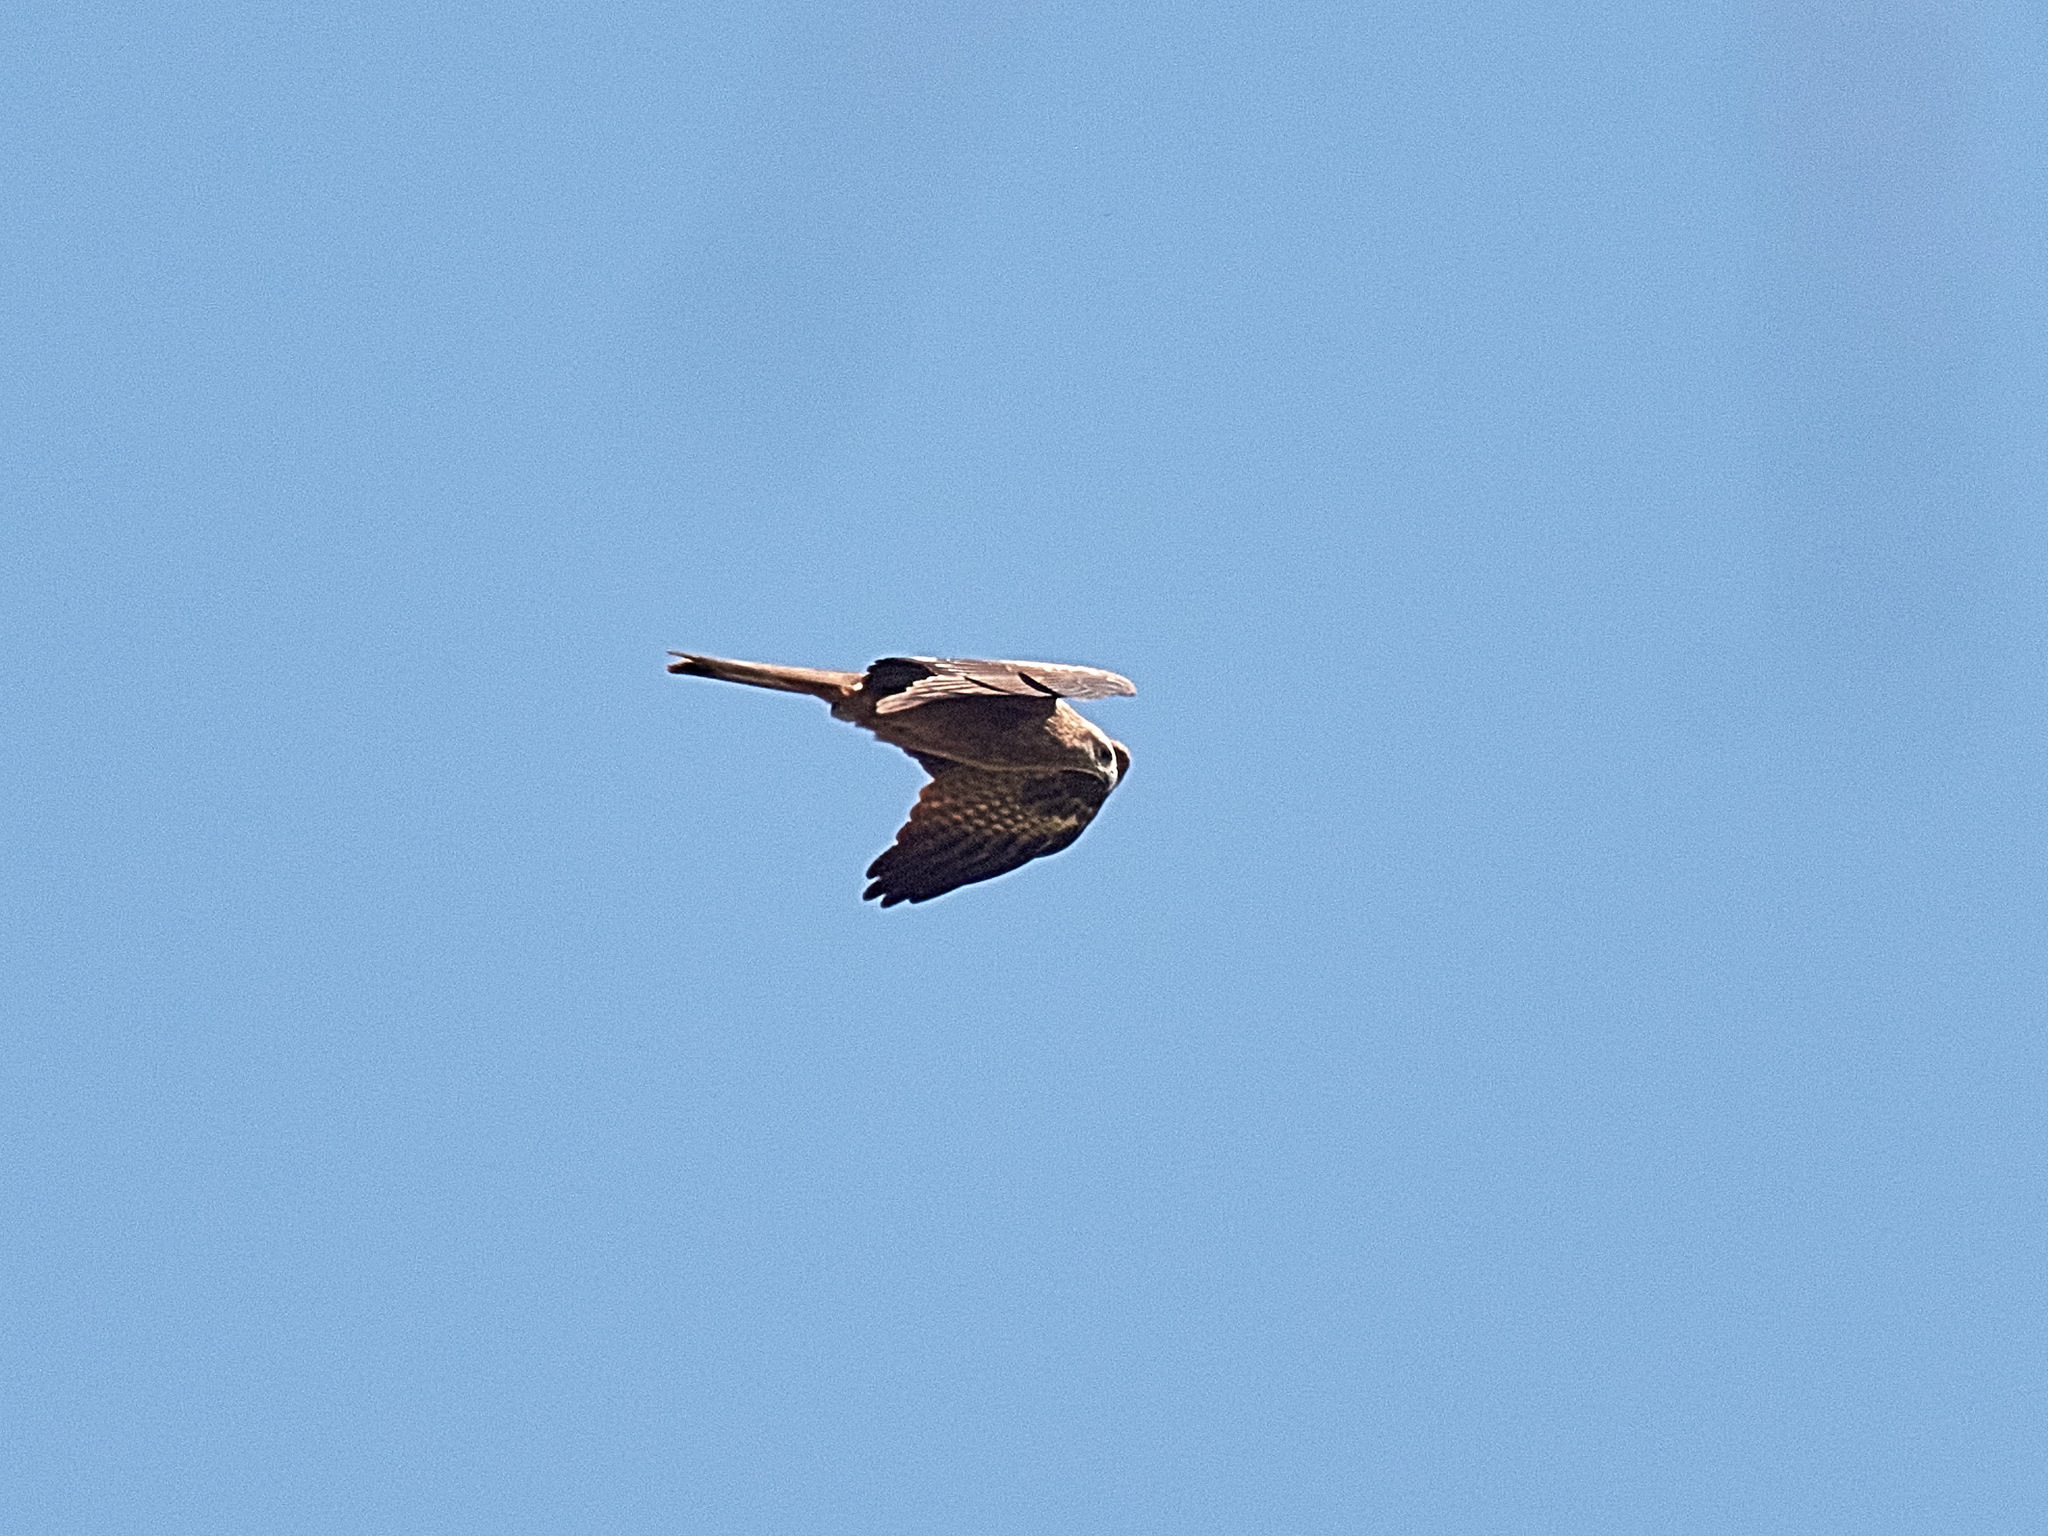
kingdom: Animalia
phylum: Chordata
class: Aves
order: Accipitriformes
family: Accipitridae
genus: Milvus
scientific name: Milvus migrans
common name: Black kite
